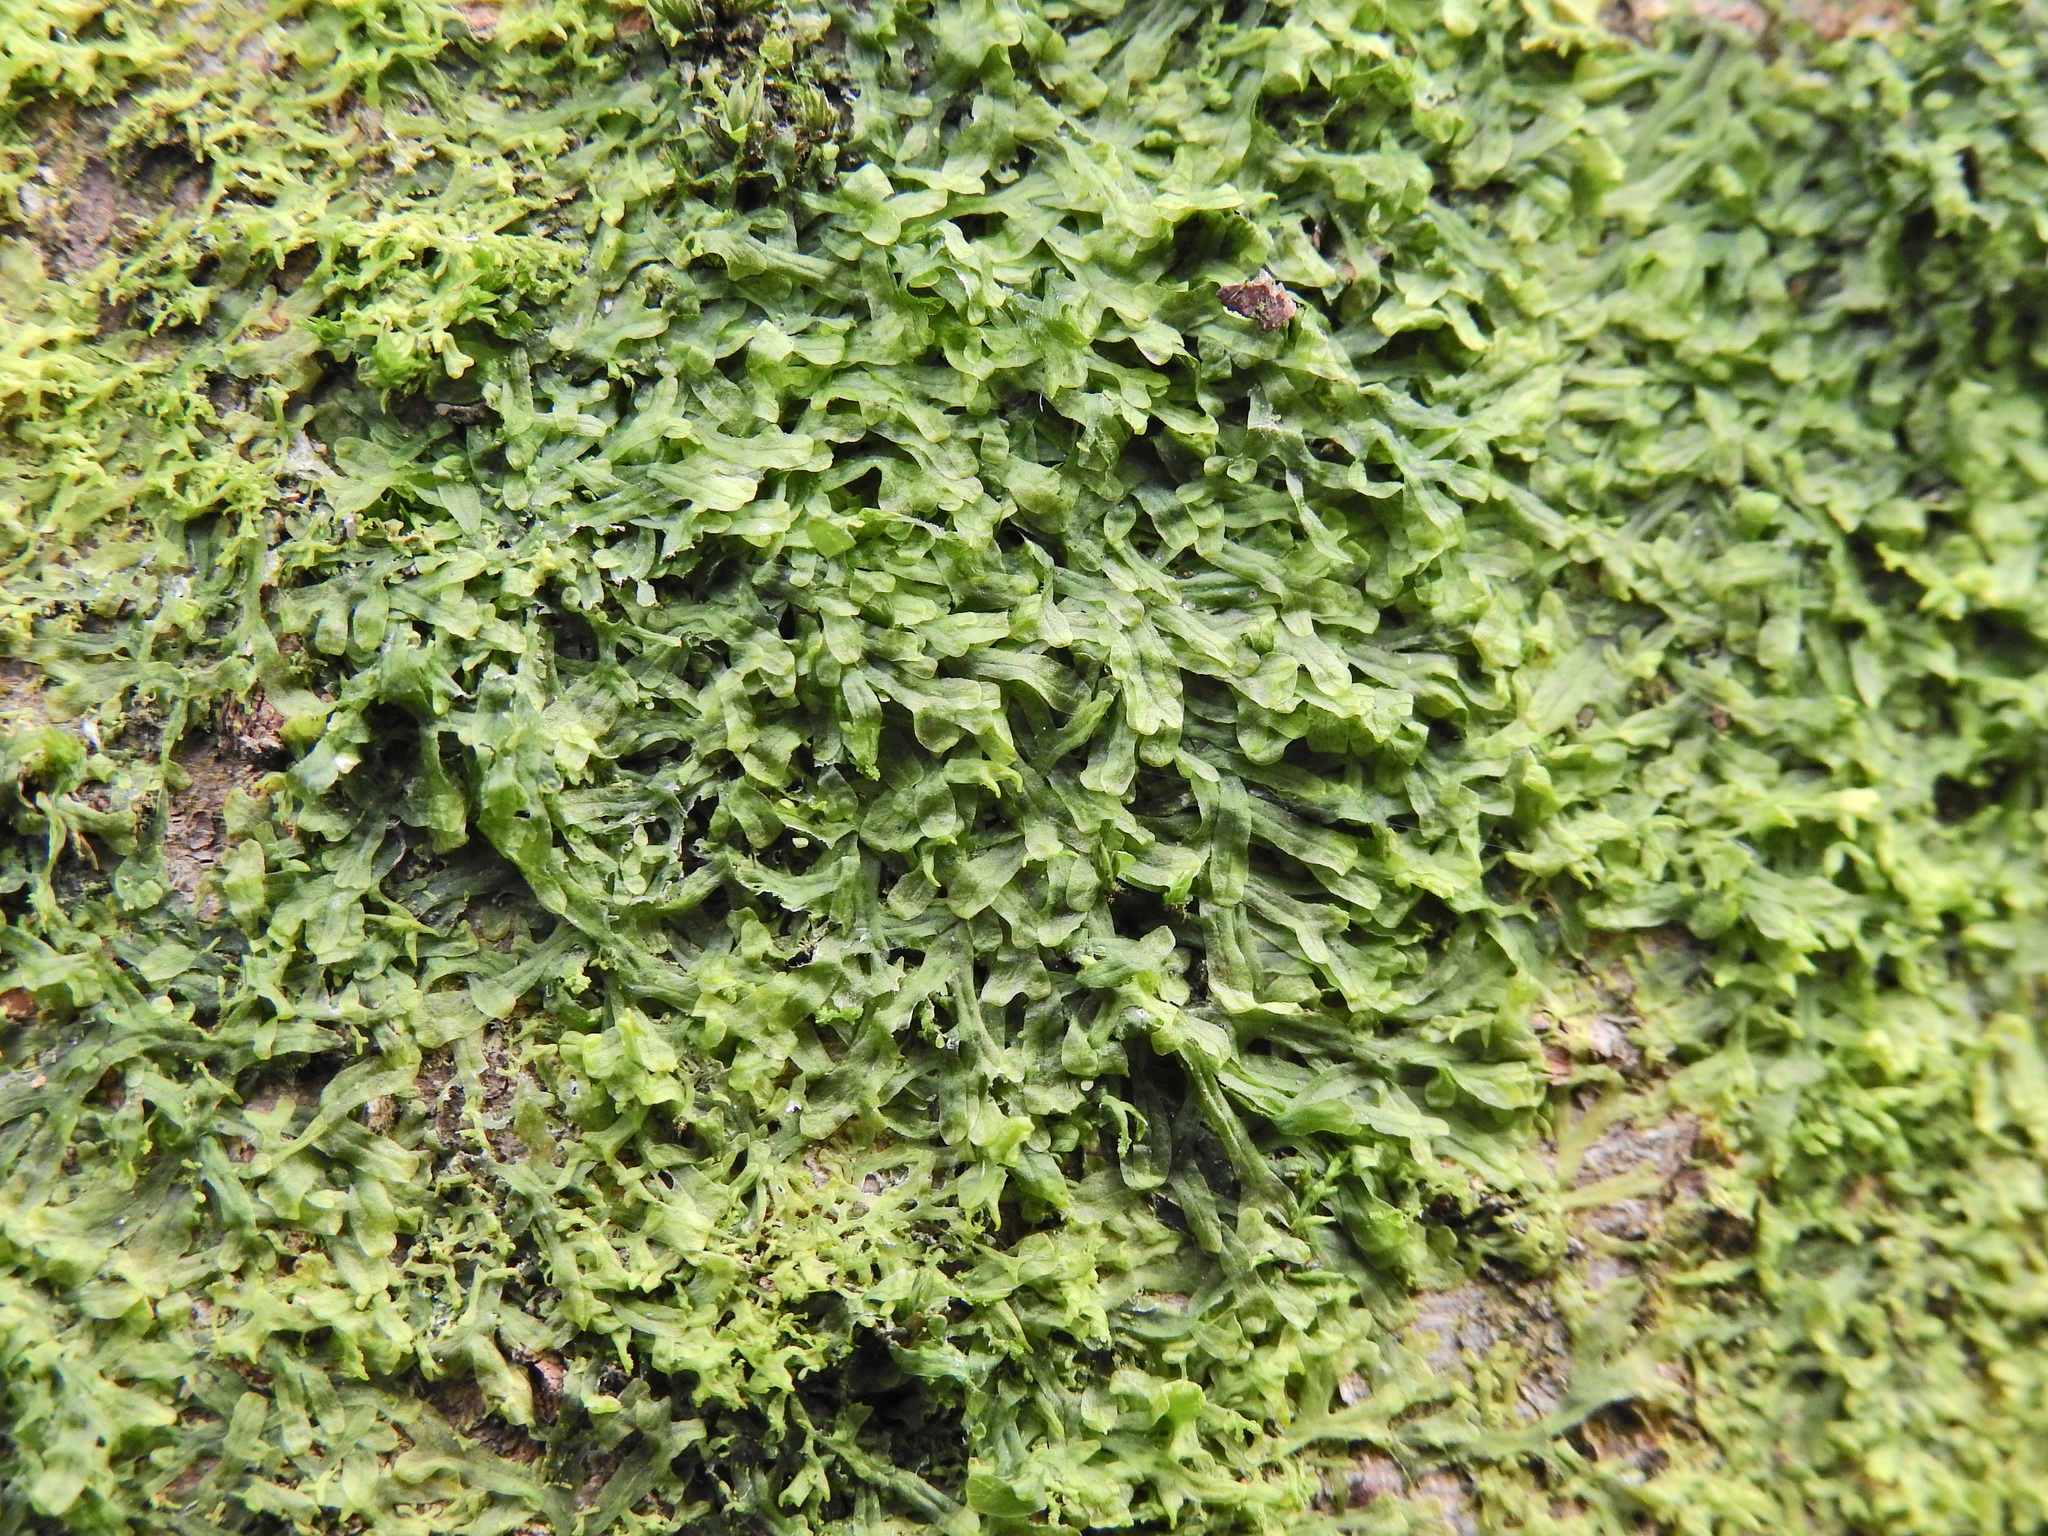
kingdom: Plantae
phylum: Marchantiophyta
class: Jungermanniopsida
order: Metzgeriales
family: Metzgeriaceae
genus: Metzgeria
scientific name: Metzgeria furcata
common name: Forked veilwort
